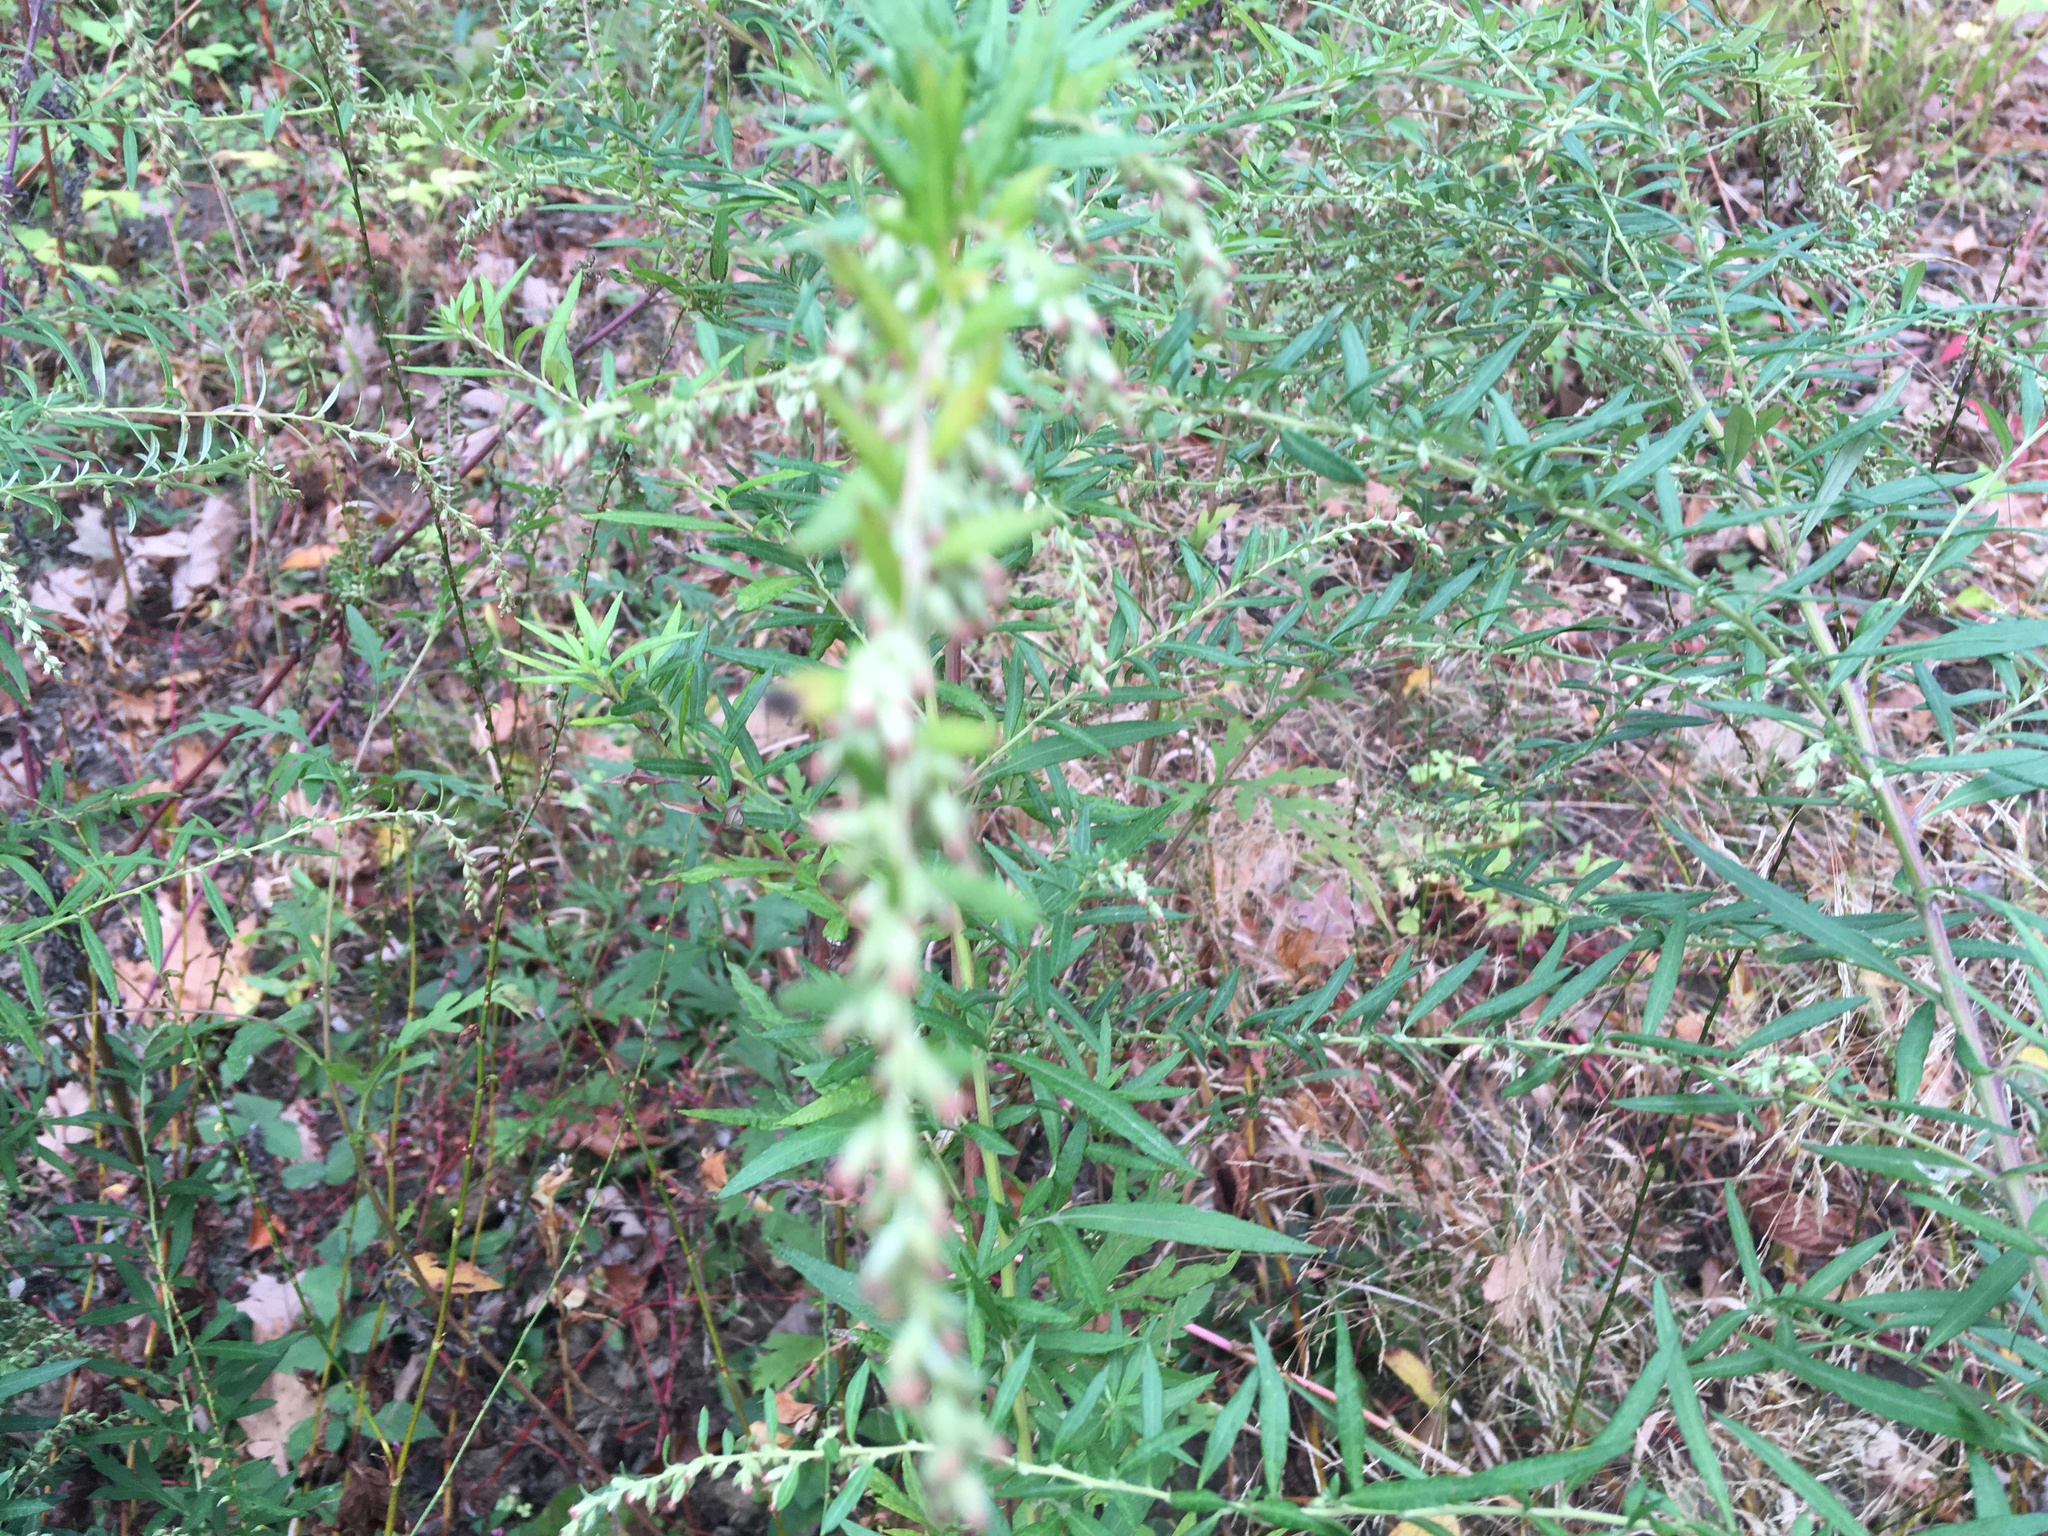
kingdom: Plantae
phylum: Tracheophyta
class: Magnoliopsida
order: Asterales
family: Asteraceae
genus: Artemisia
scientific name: Artemisia vulgaris
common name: Mugwort
